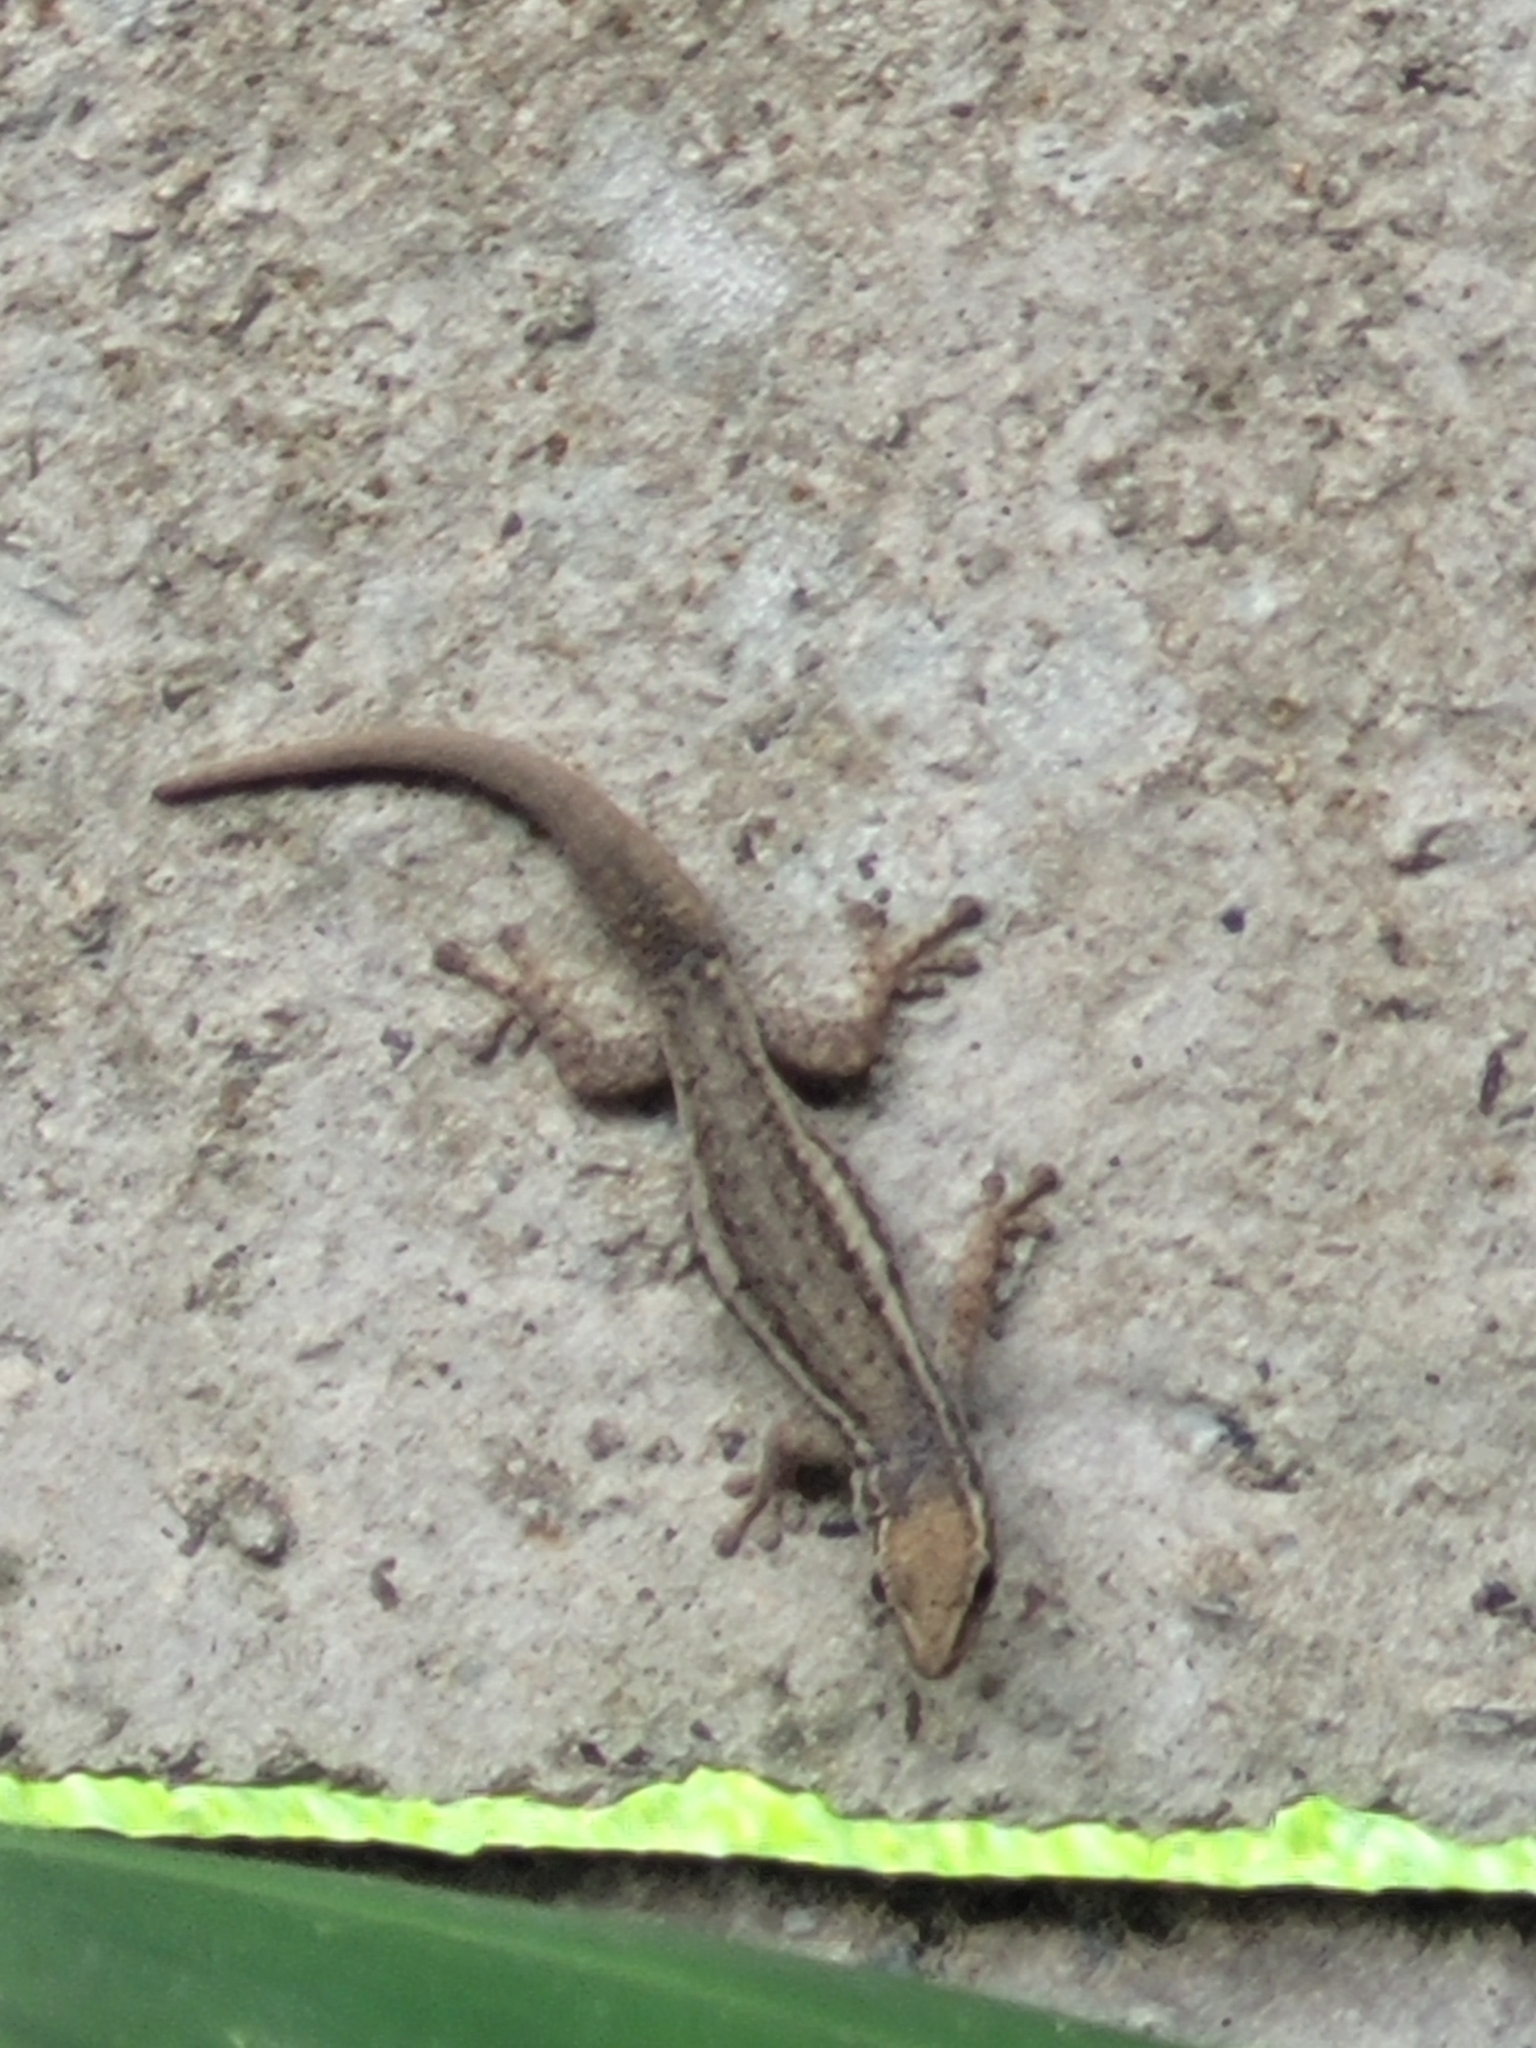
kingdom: Animalia
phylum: Chordata
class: Squamata
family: Gekkonidae
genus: Lygodactylus
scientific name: Lygodactylus capensis
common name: Cape dwarf gecko
